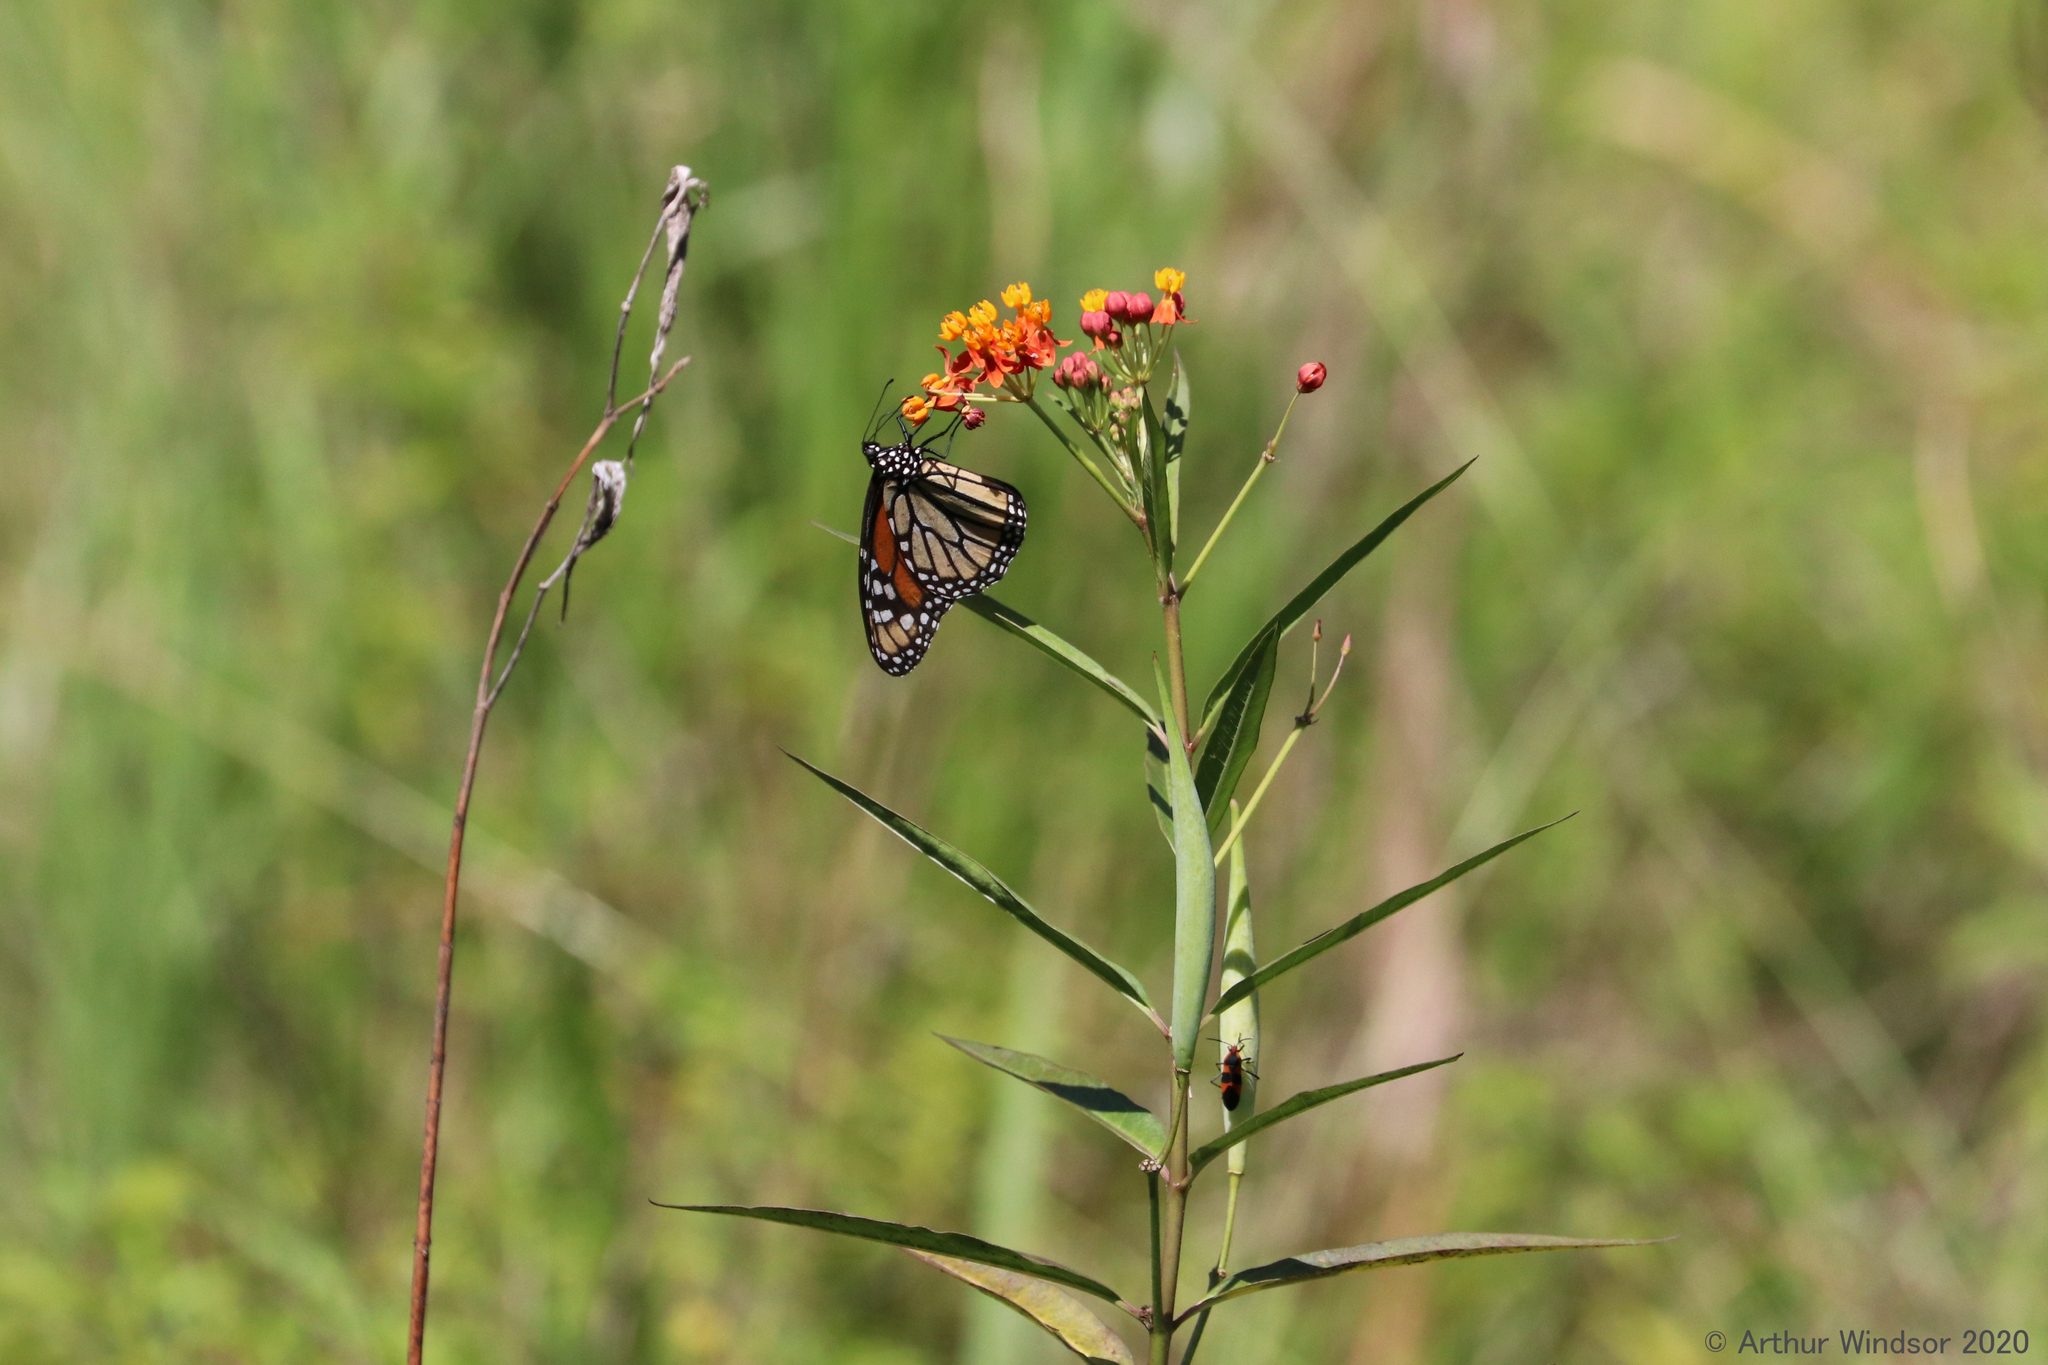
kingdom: Animalia
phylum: Arthropoda
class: Insecta
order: Lepidoptera
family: Nymphalidae
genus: Danaus
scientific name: Danaus plexippus
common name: Monarch
